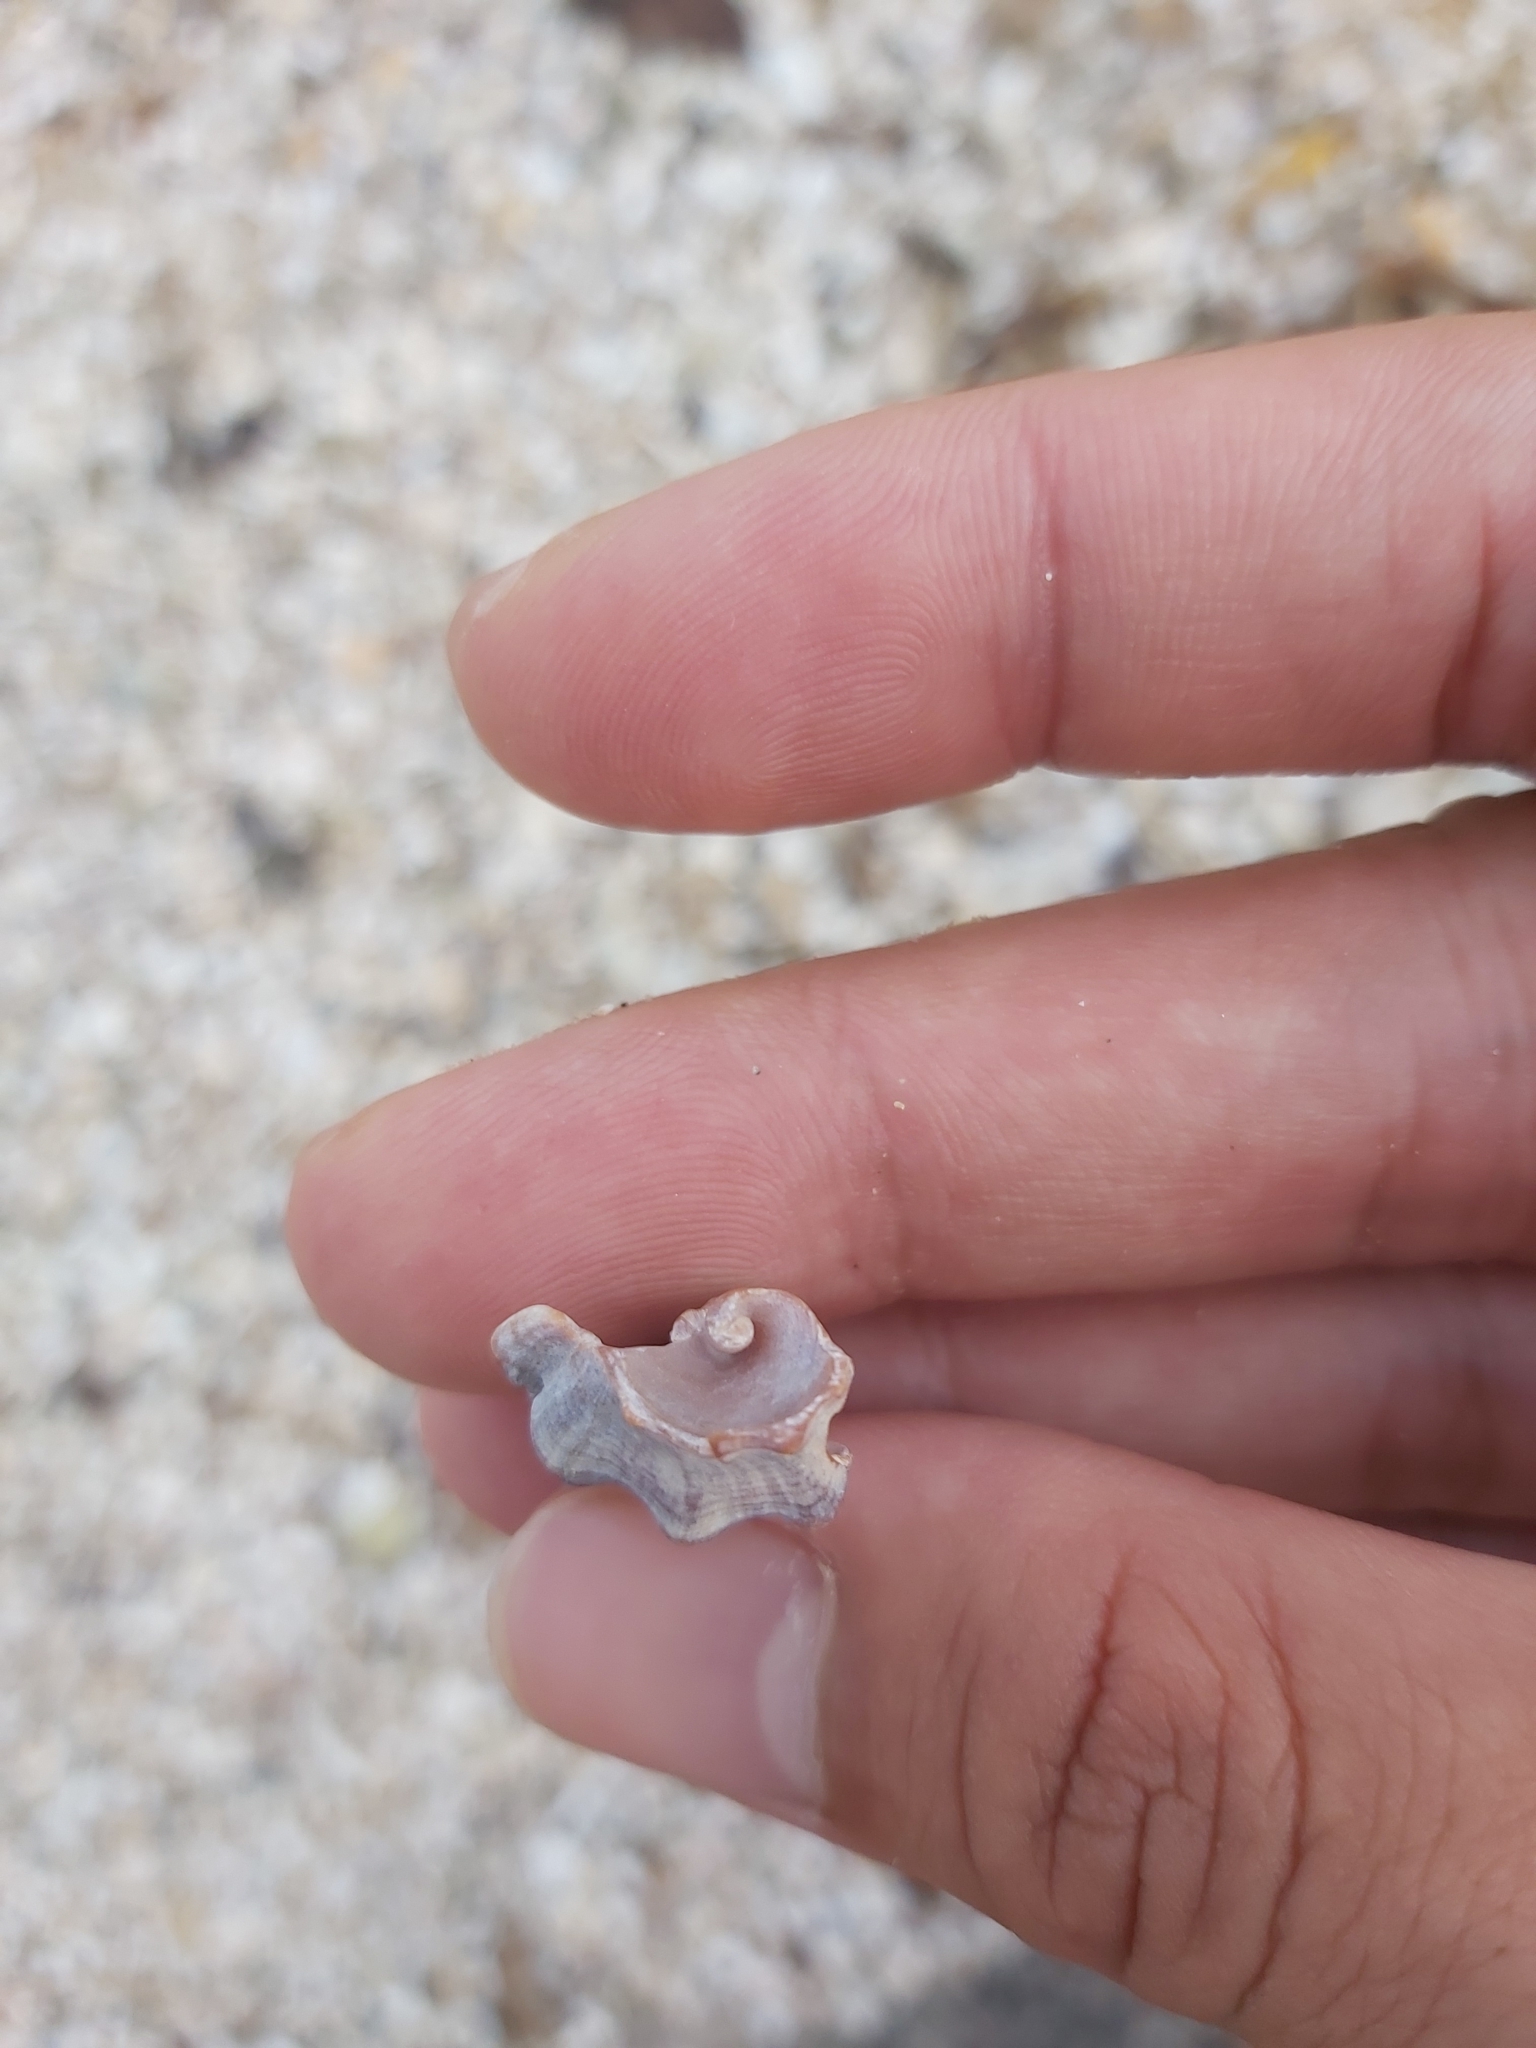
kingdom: Animalia
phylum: Mollusca
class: Gastropoda
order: Neogastropoda
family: Muricidae
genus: Lataxiena
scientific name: Lataxiena blosvillei
